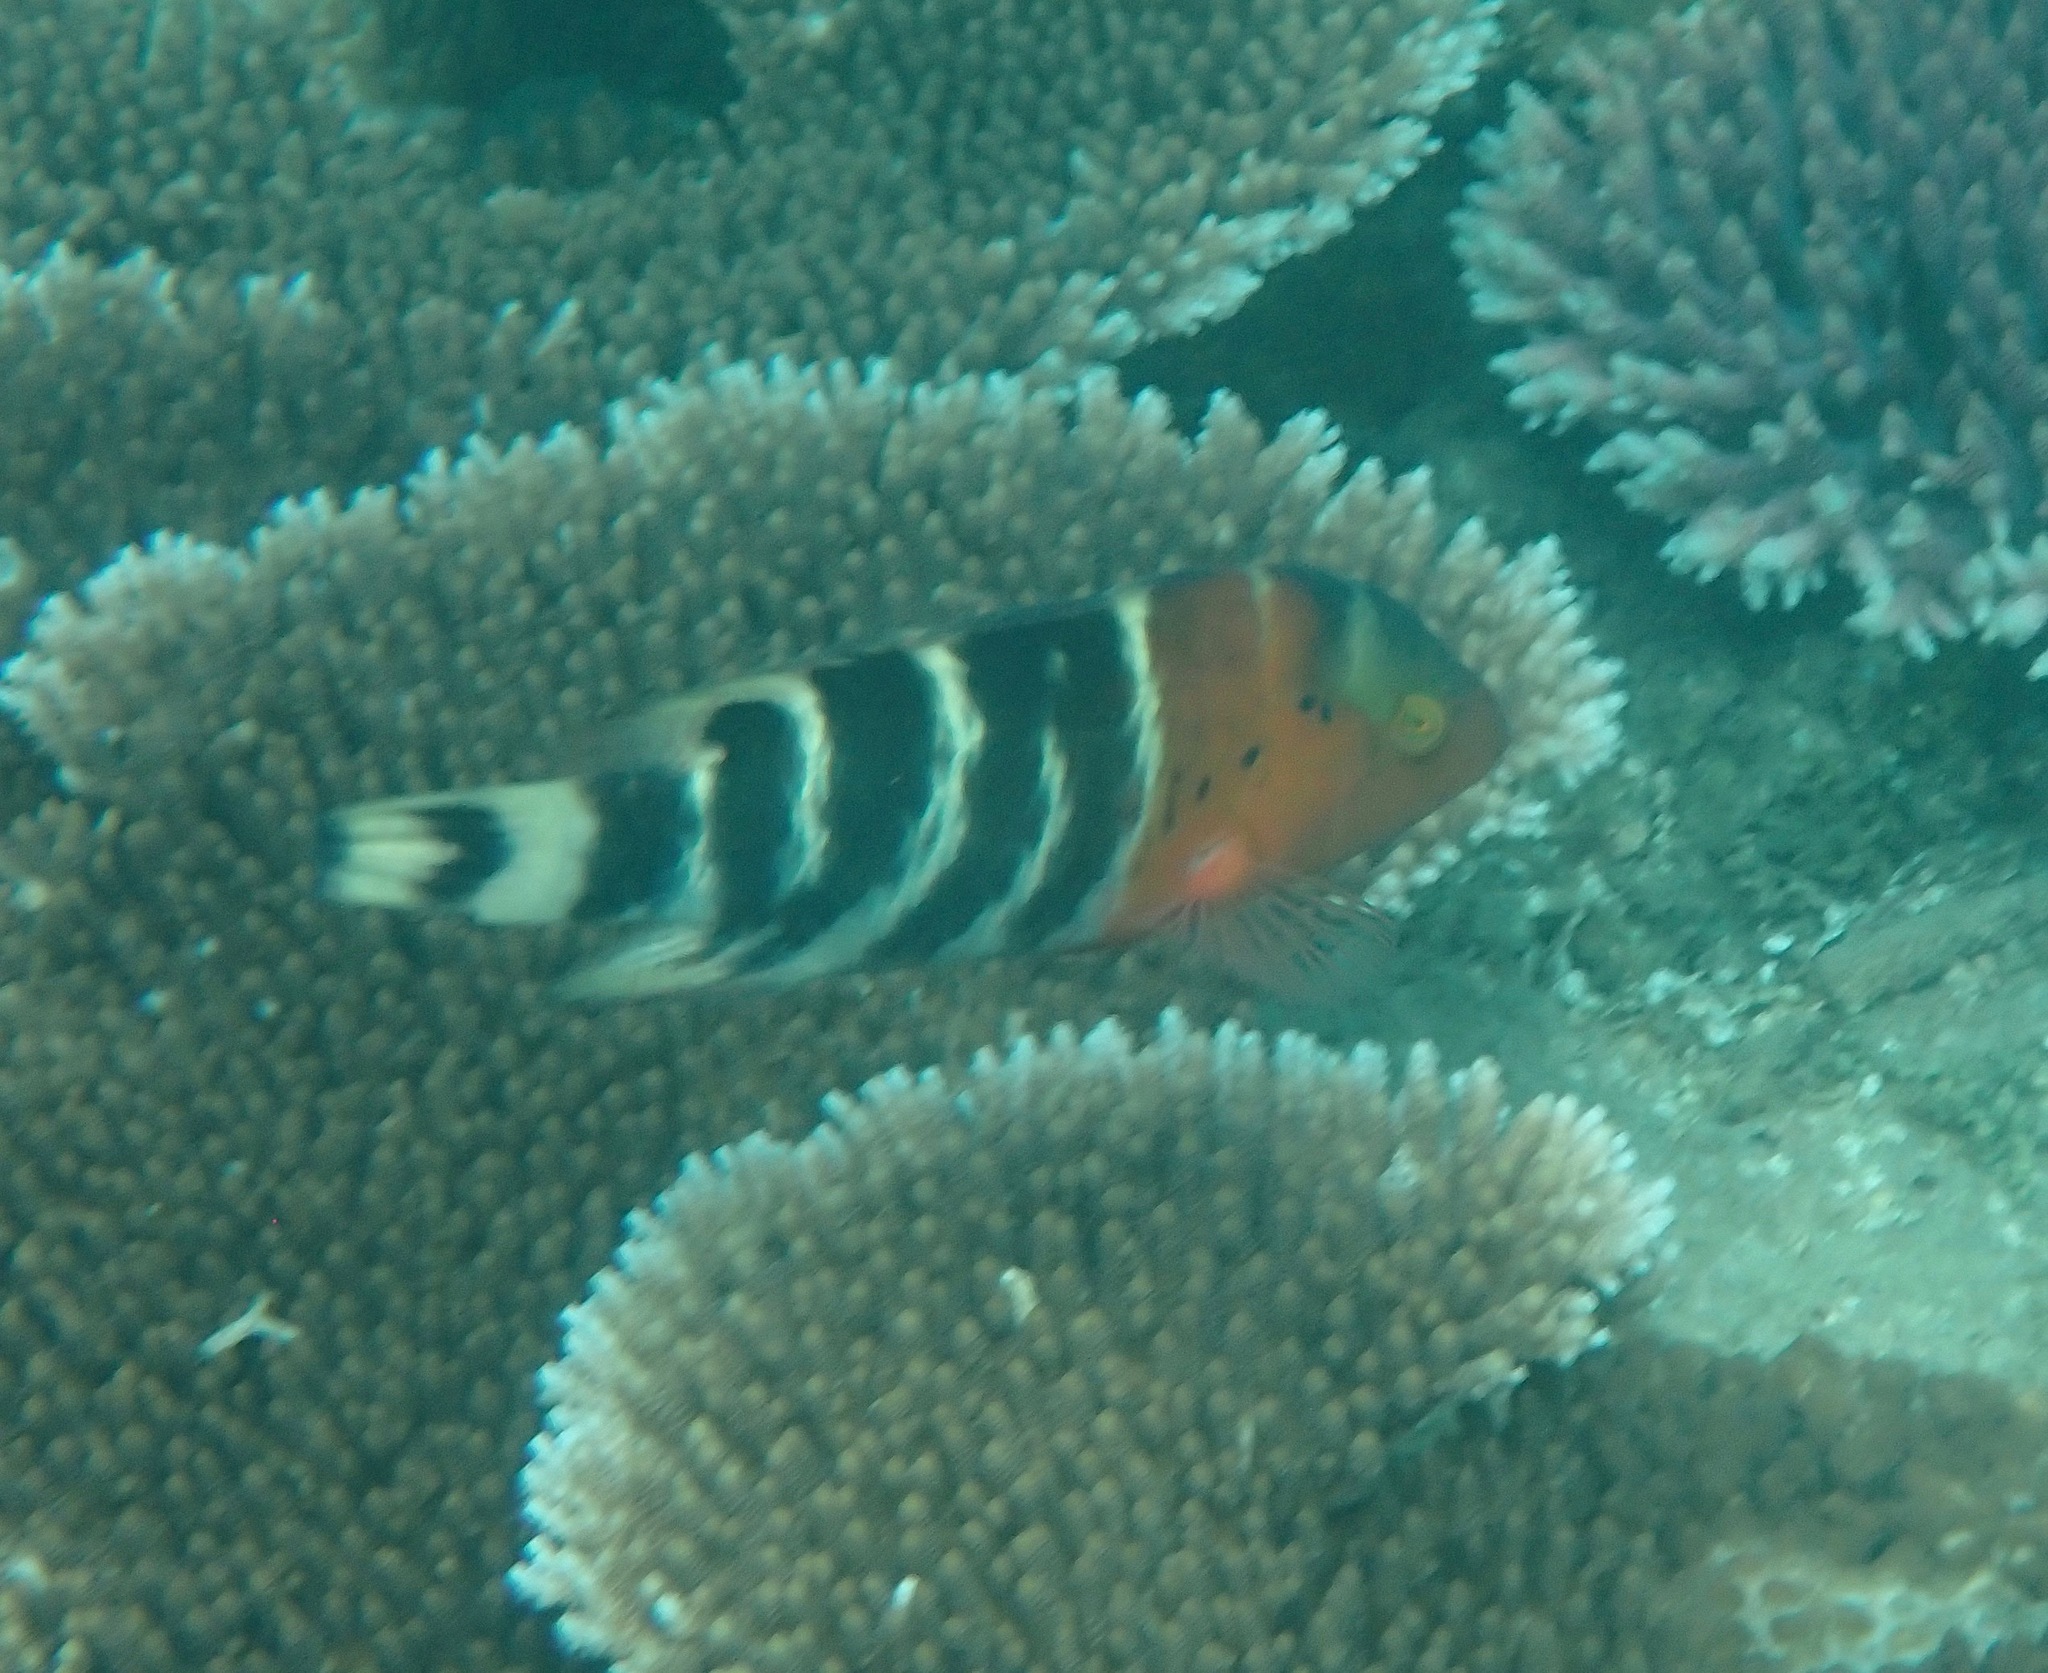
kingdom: Animalia
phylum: Chordata
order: Perciformes
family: Labridae
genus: Cheilinus
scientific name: Cheilinus fasciatus
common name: Red-breasted wrasse
